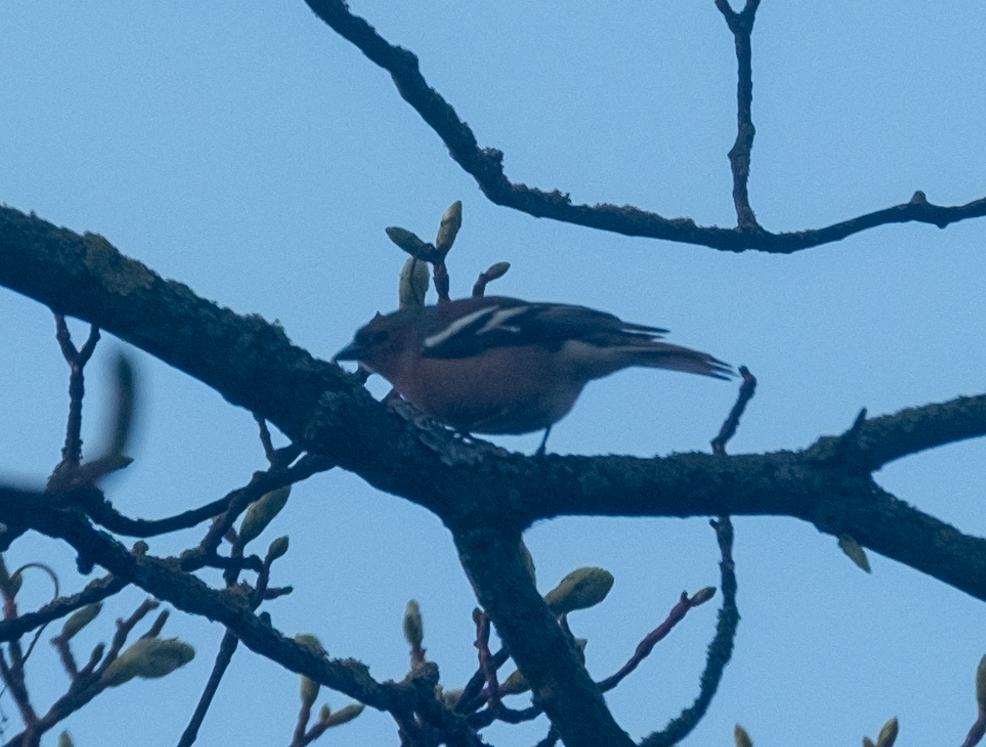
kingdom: Animalia
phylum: Chordata
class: Aves
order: Passeriformes
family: Fringillidae
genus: Fringilla
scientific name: Fringilla coelebs
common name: Common chaffinch
